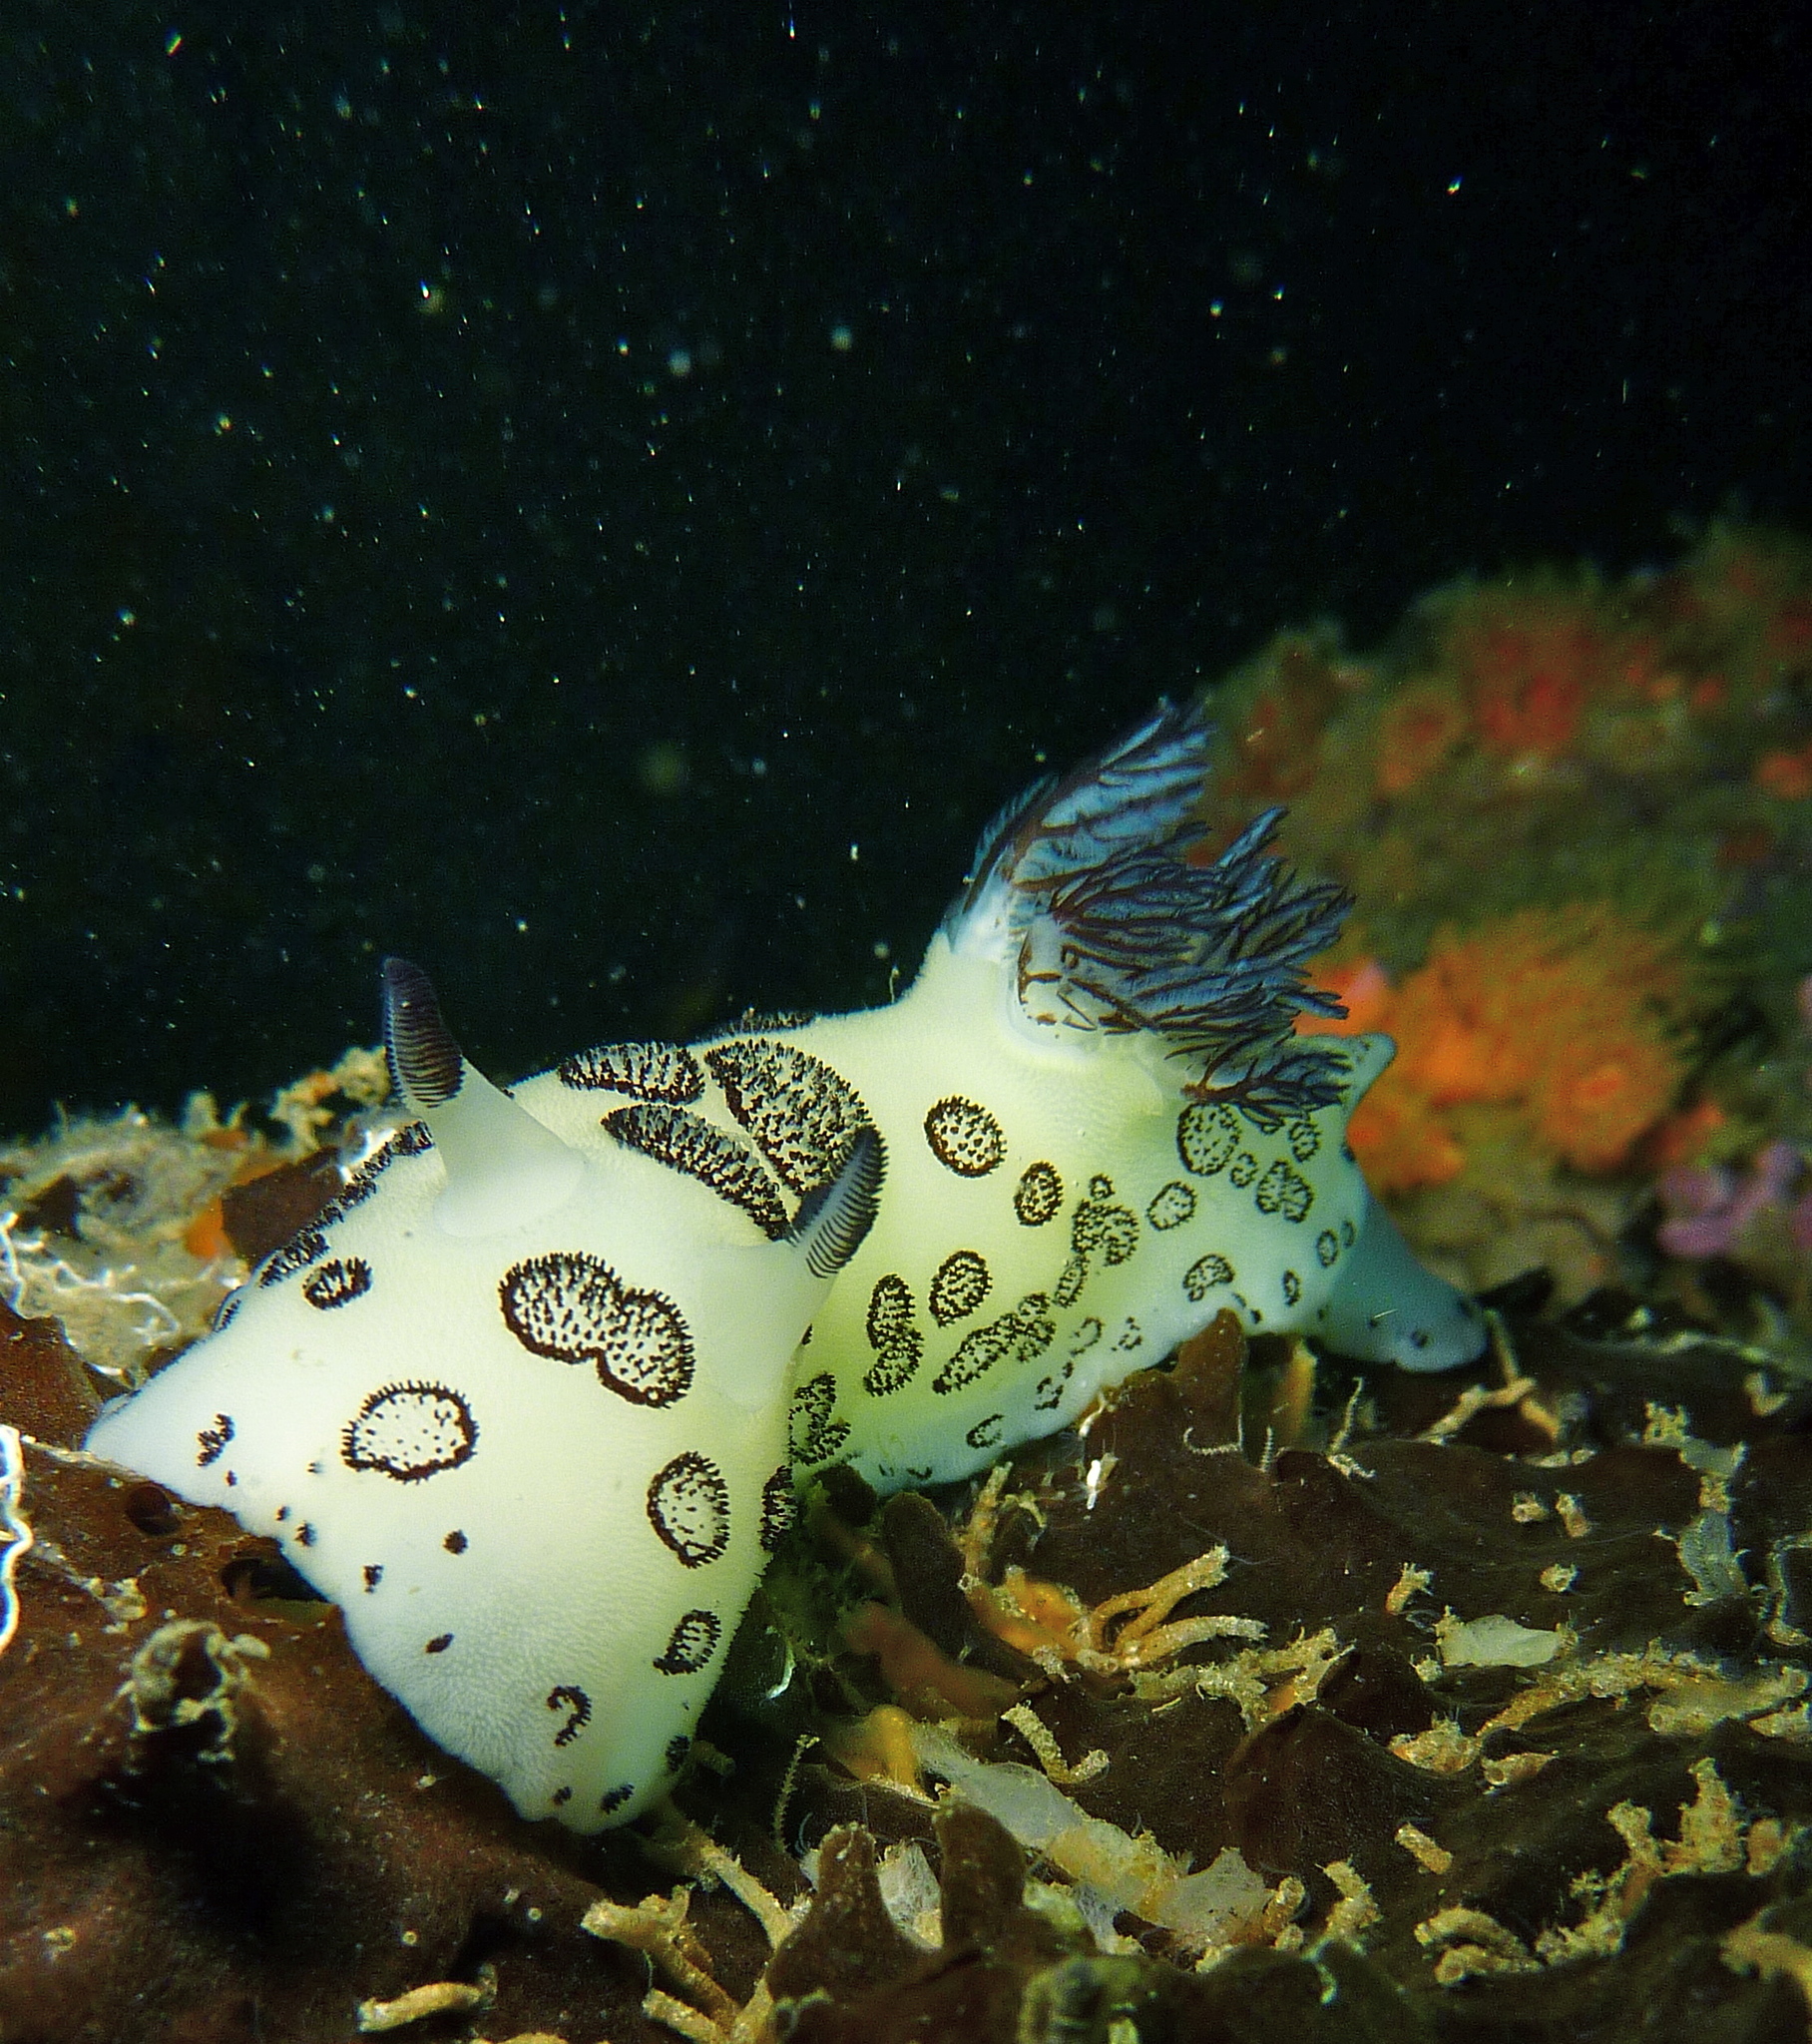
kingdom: Animalia
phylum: Mollusca
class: Gastropoda
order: Nudibranchia
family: Discodorididae
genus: Jorunna
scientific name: Jorunna funebris
